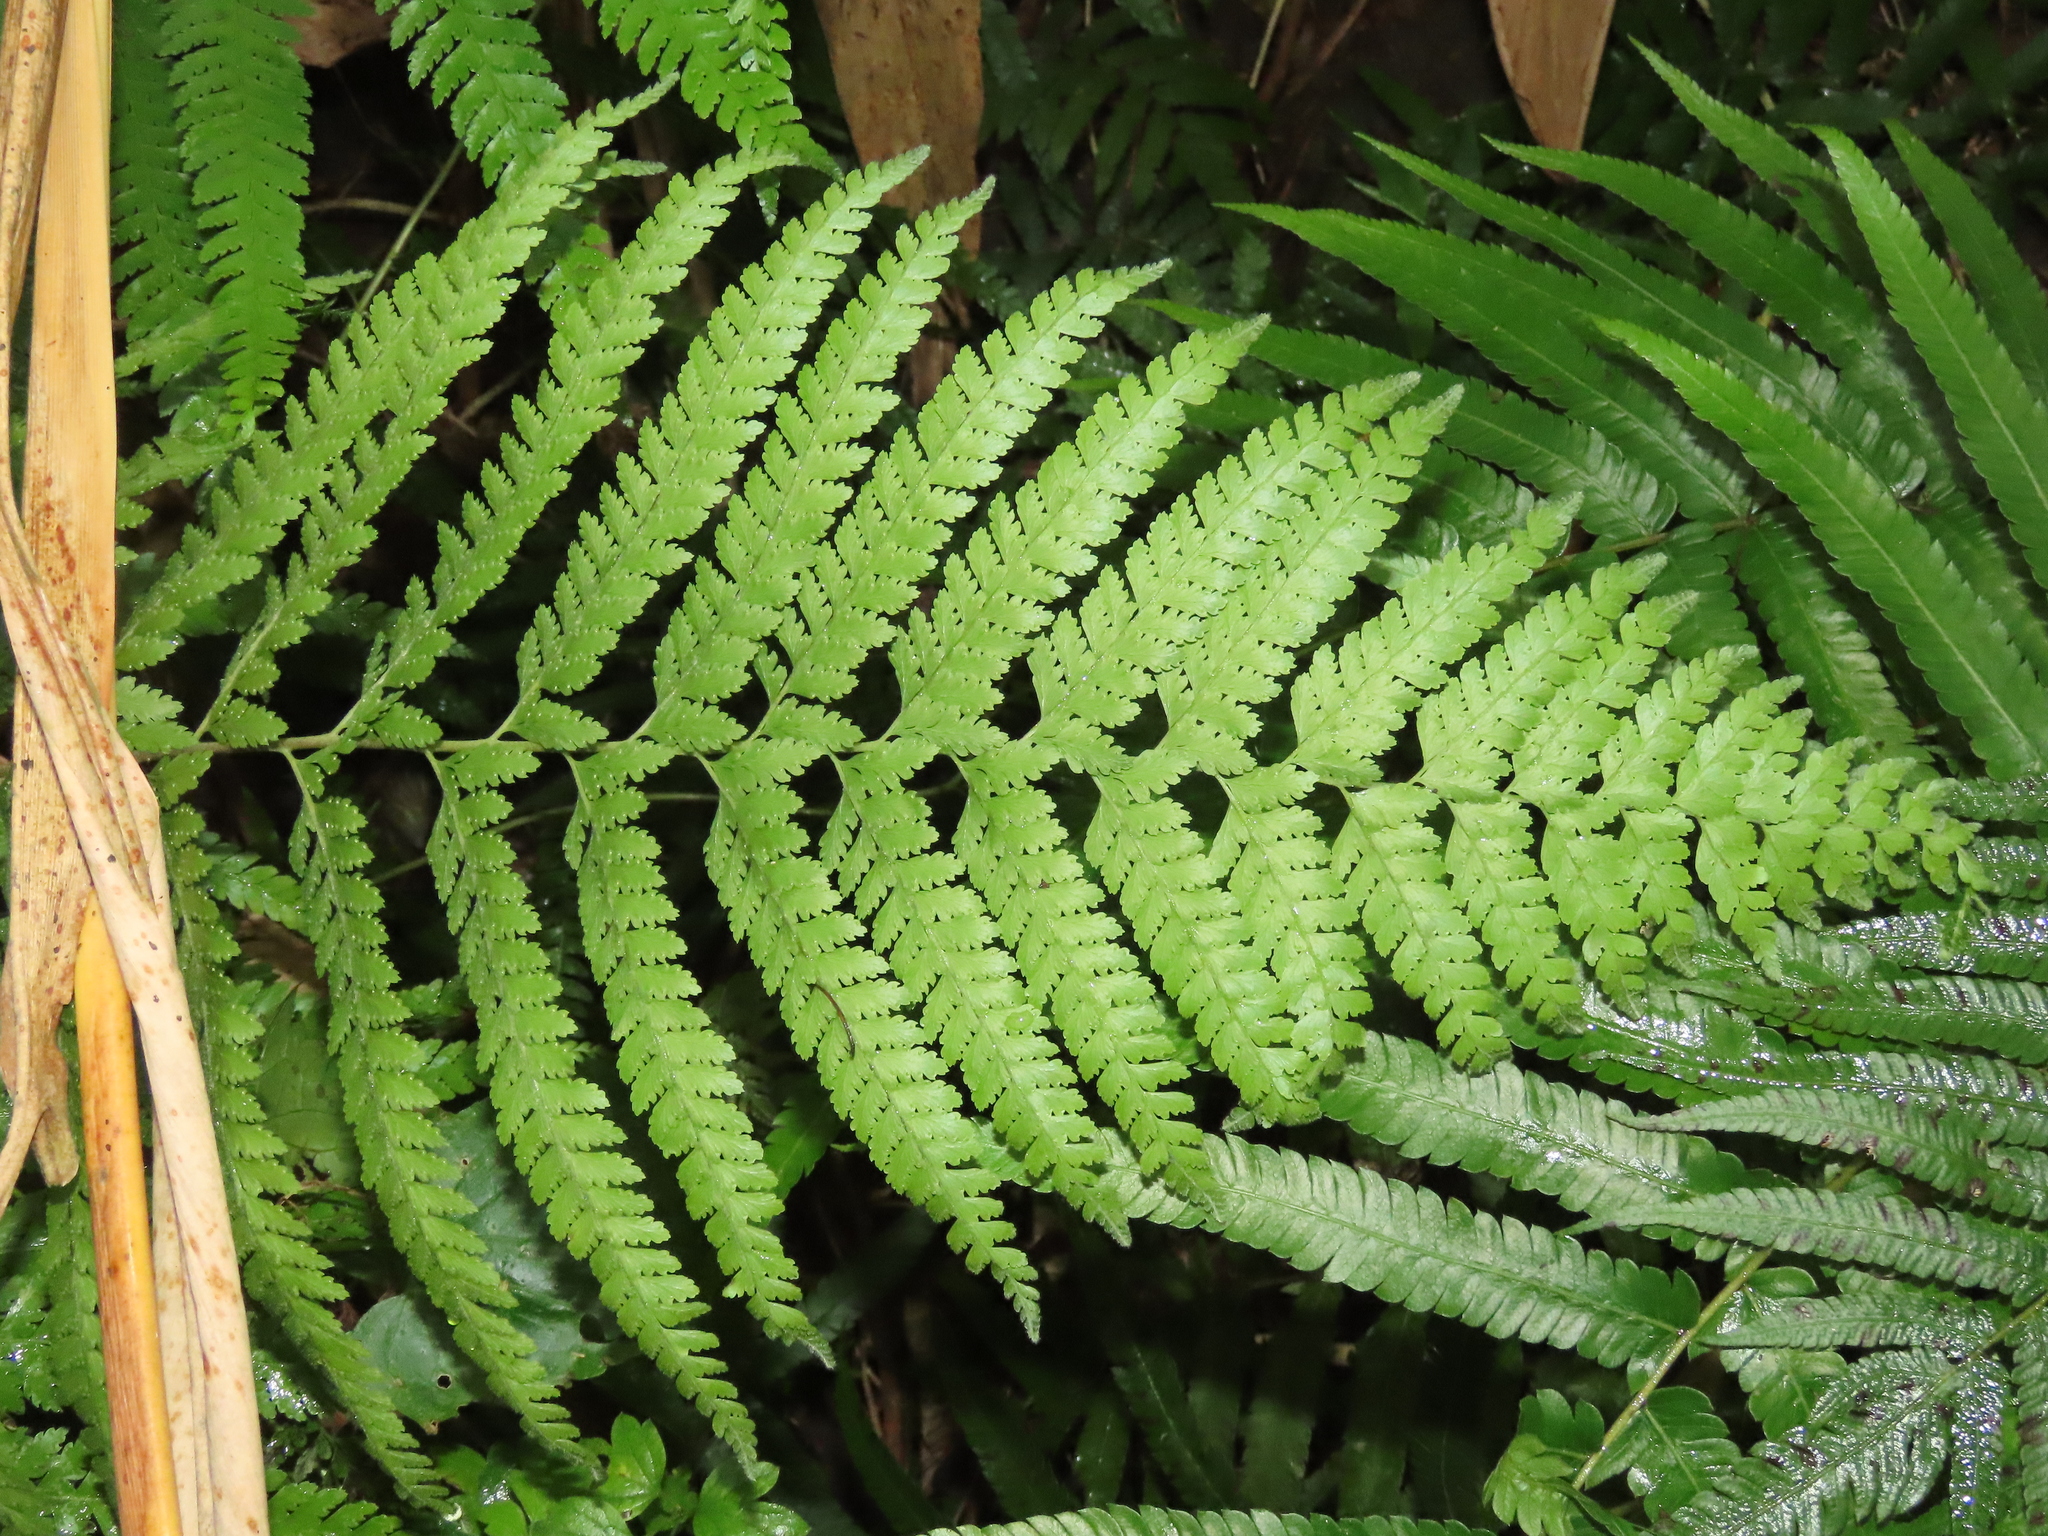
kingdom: Plantae
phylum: Tracheophyta
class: Polypodiopsida
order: Polypodiales
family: Dennstaedtiaceae
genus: Microlepia
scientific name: Microlepia strigosa
